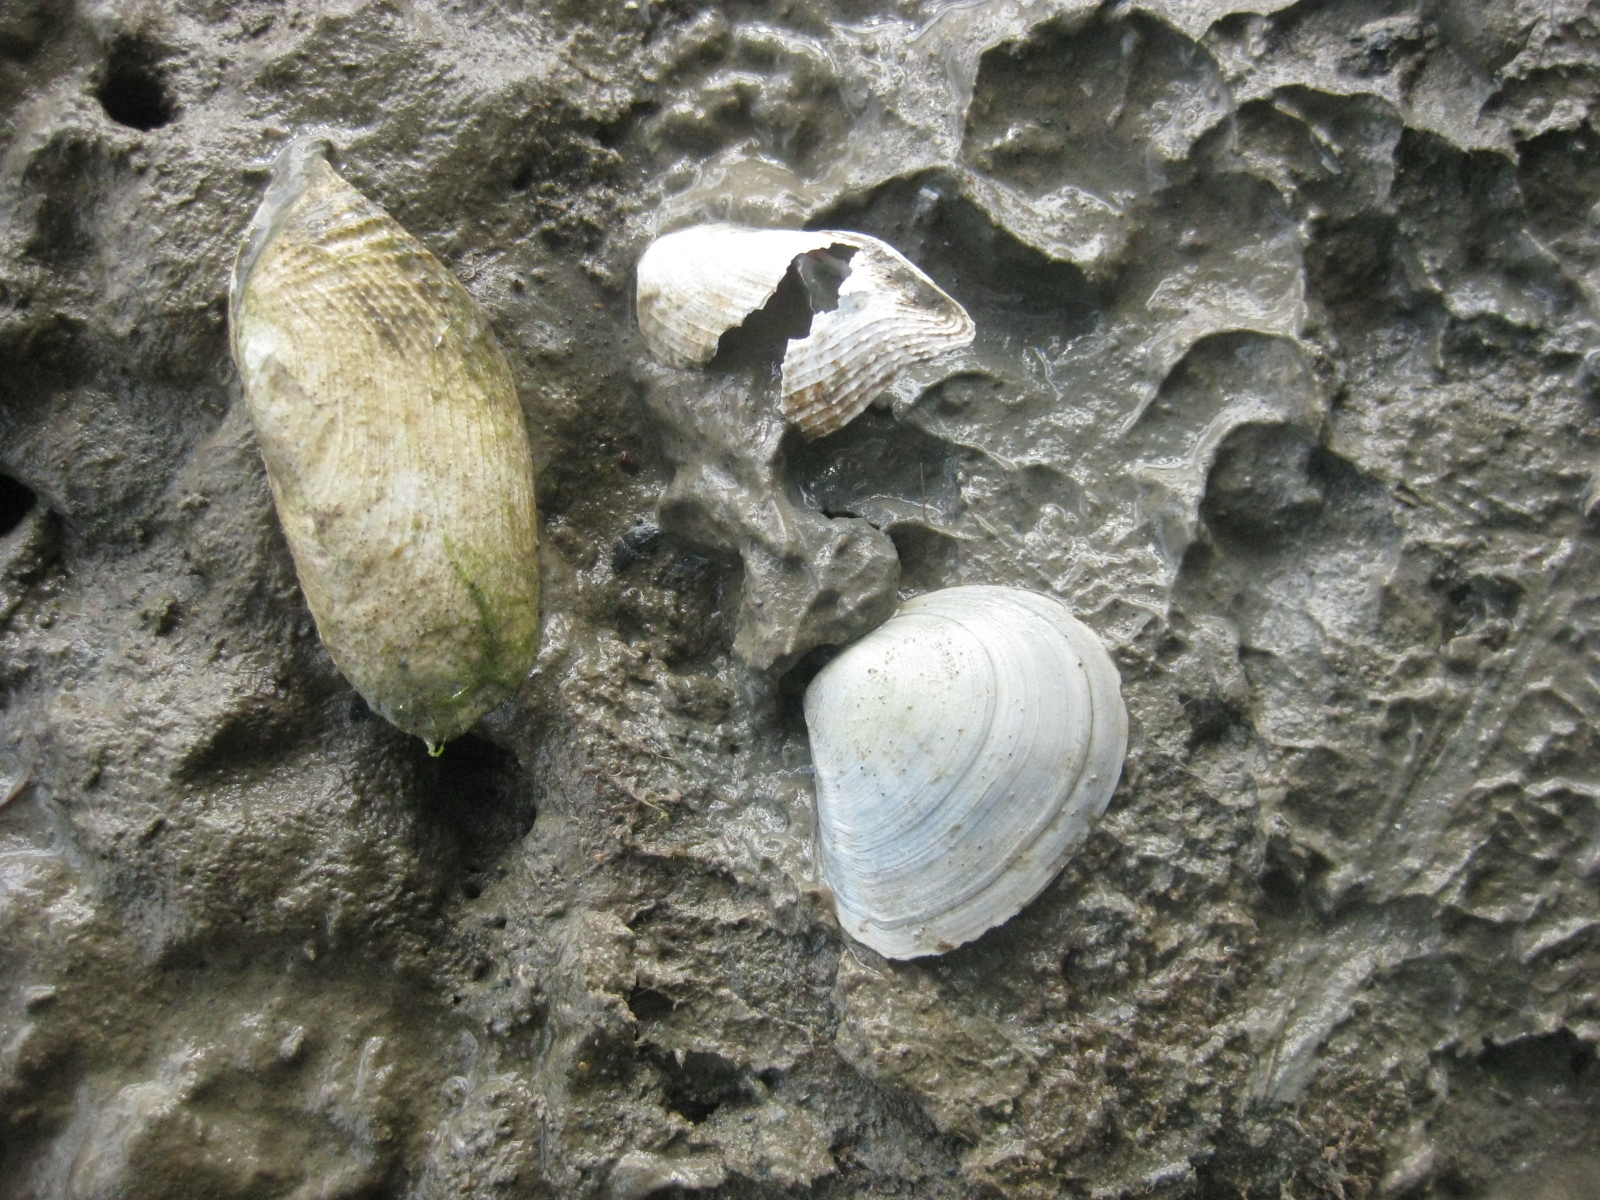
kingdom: Animalia
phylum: Mollusca
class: Bivalvia
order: Myida
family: Pholadidae
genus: Barnea
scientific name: Barnea similis
